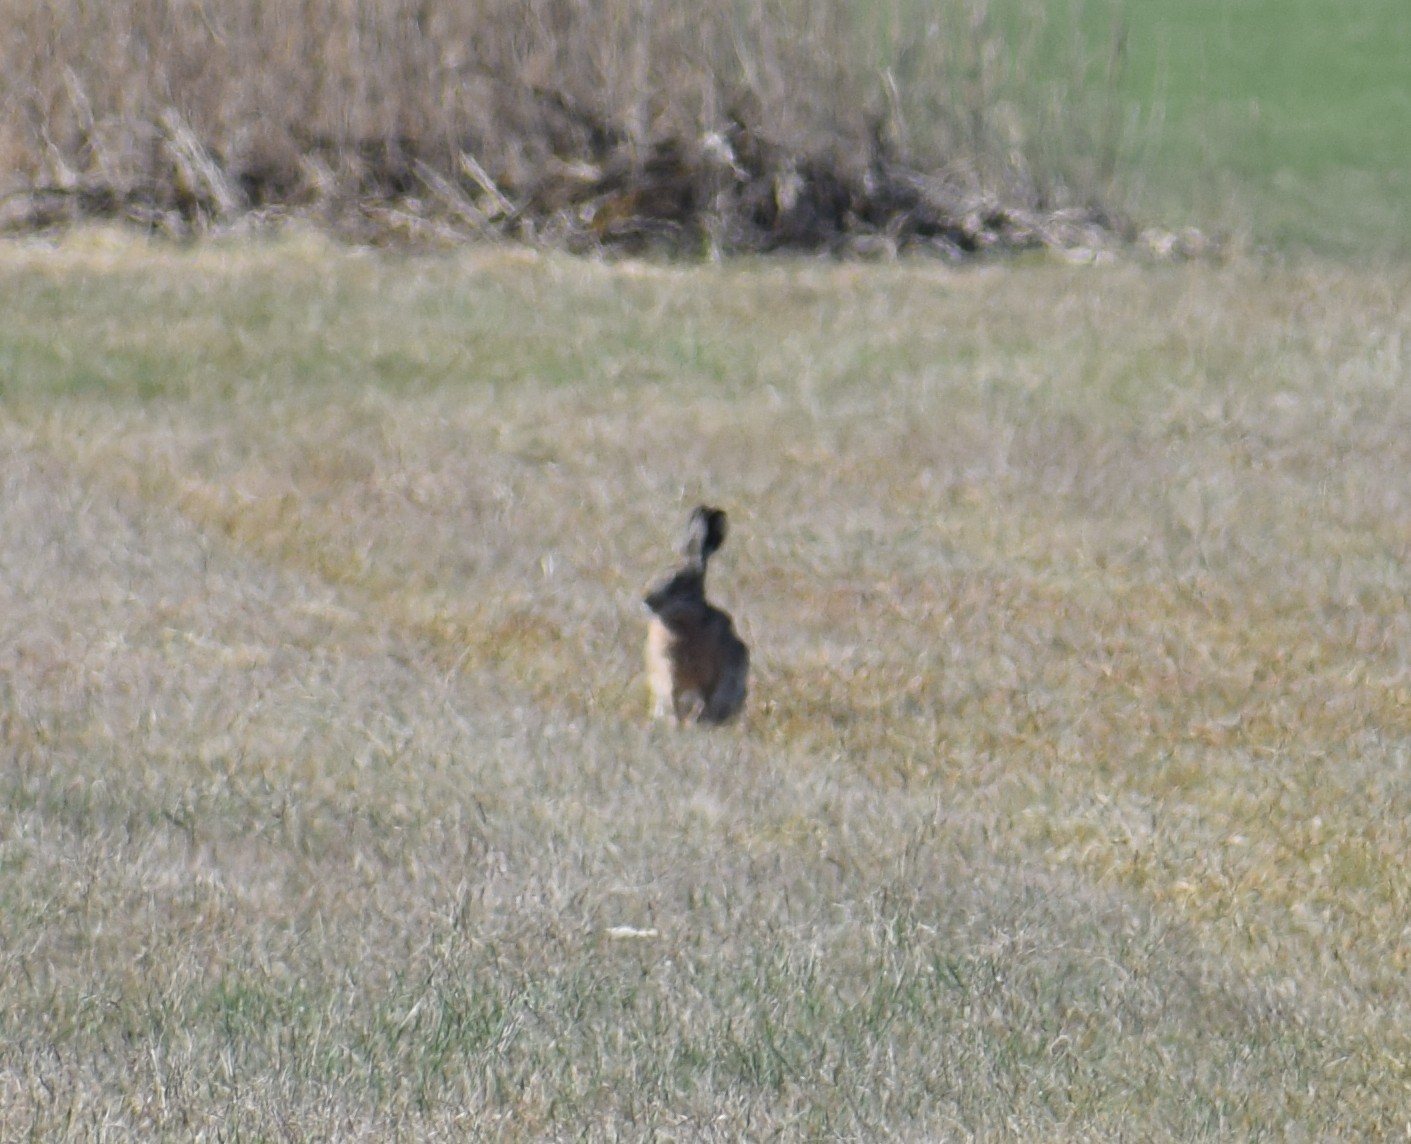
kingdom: Animalia
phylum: Chordata
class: Mammalia
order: Lagomorpha
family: Leporidae
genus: Lepus
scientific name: Lepus europaeus
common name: European hare
